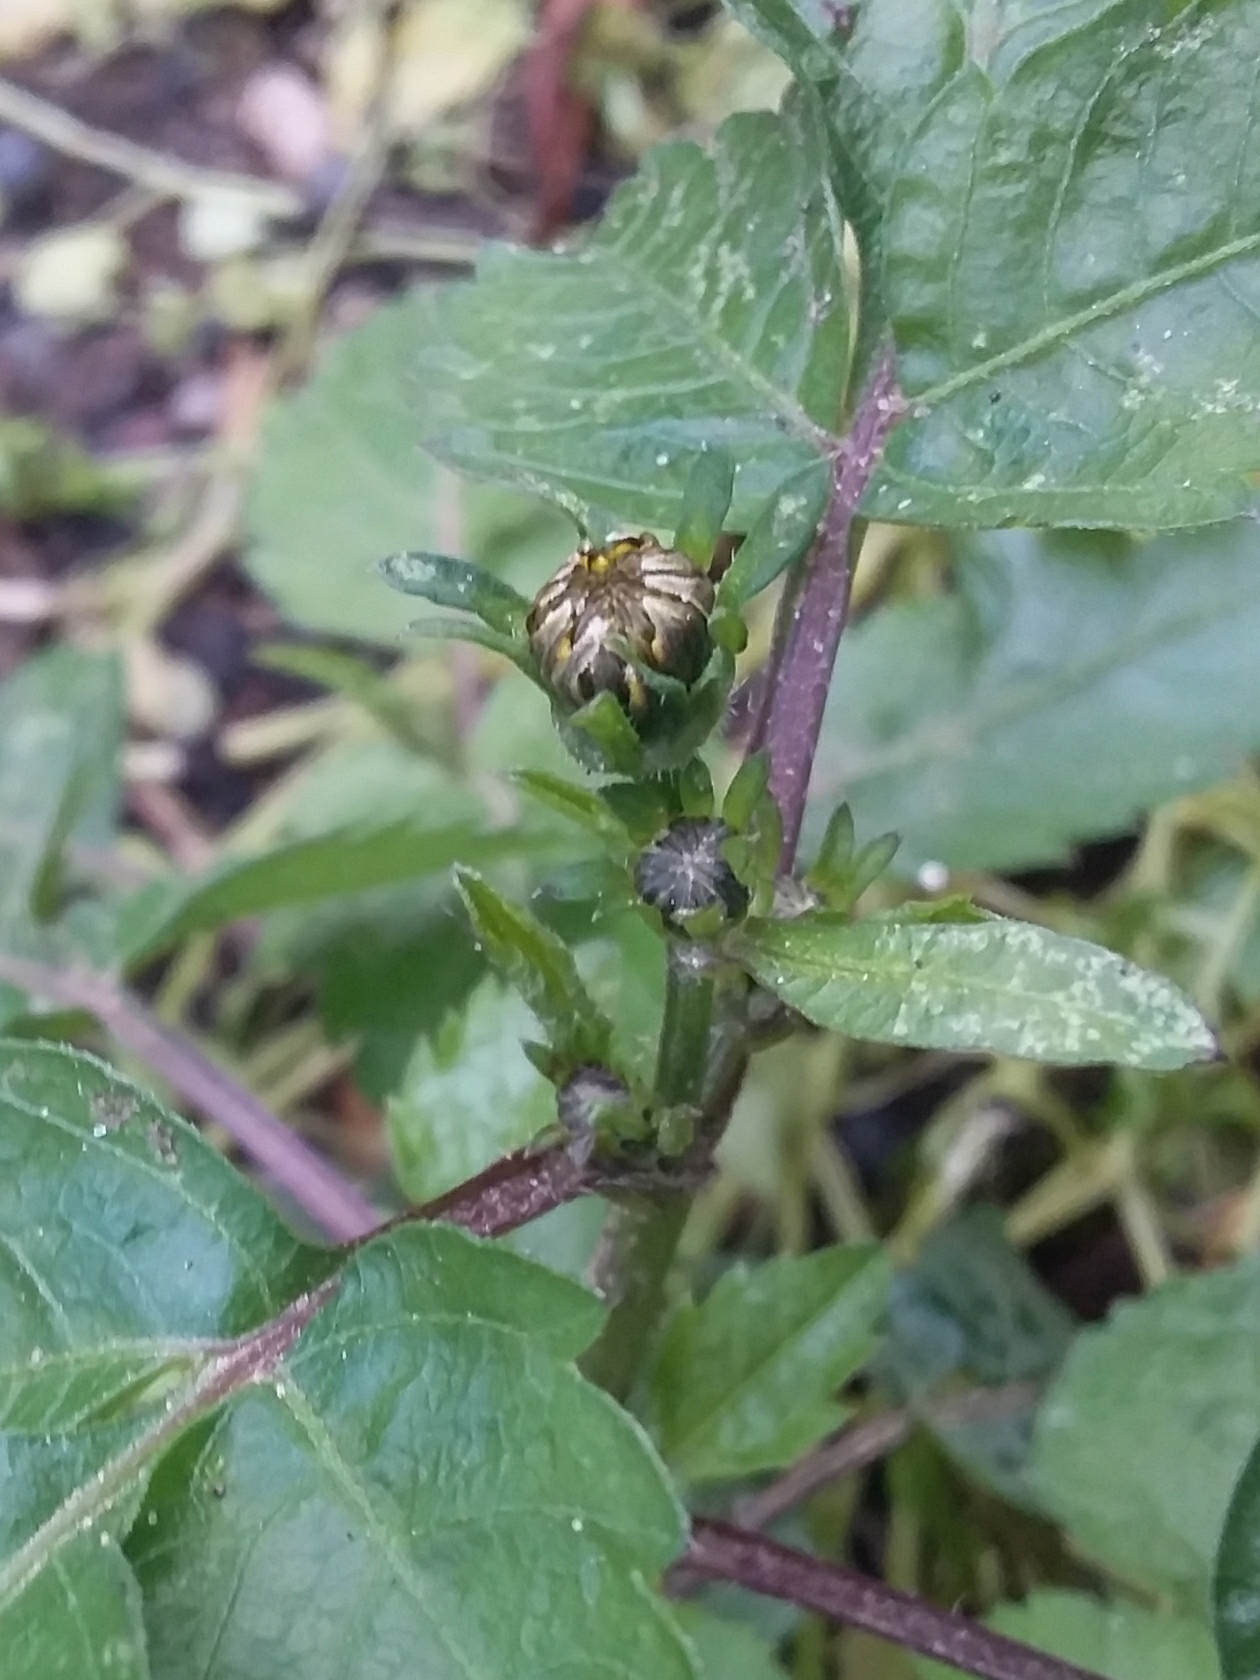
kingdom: Plantae
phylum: Tracheophyta
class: Magnoliopsida
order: Asterales
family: Asteraceae
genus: Bidens
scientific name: Bidens pilosa
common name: Black-jack
